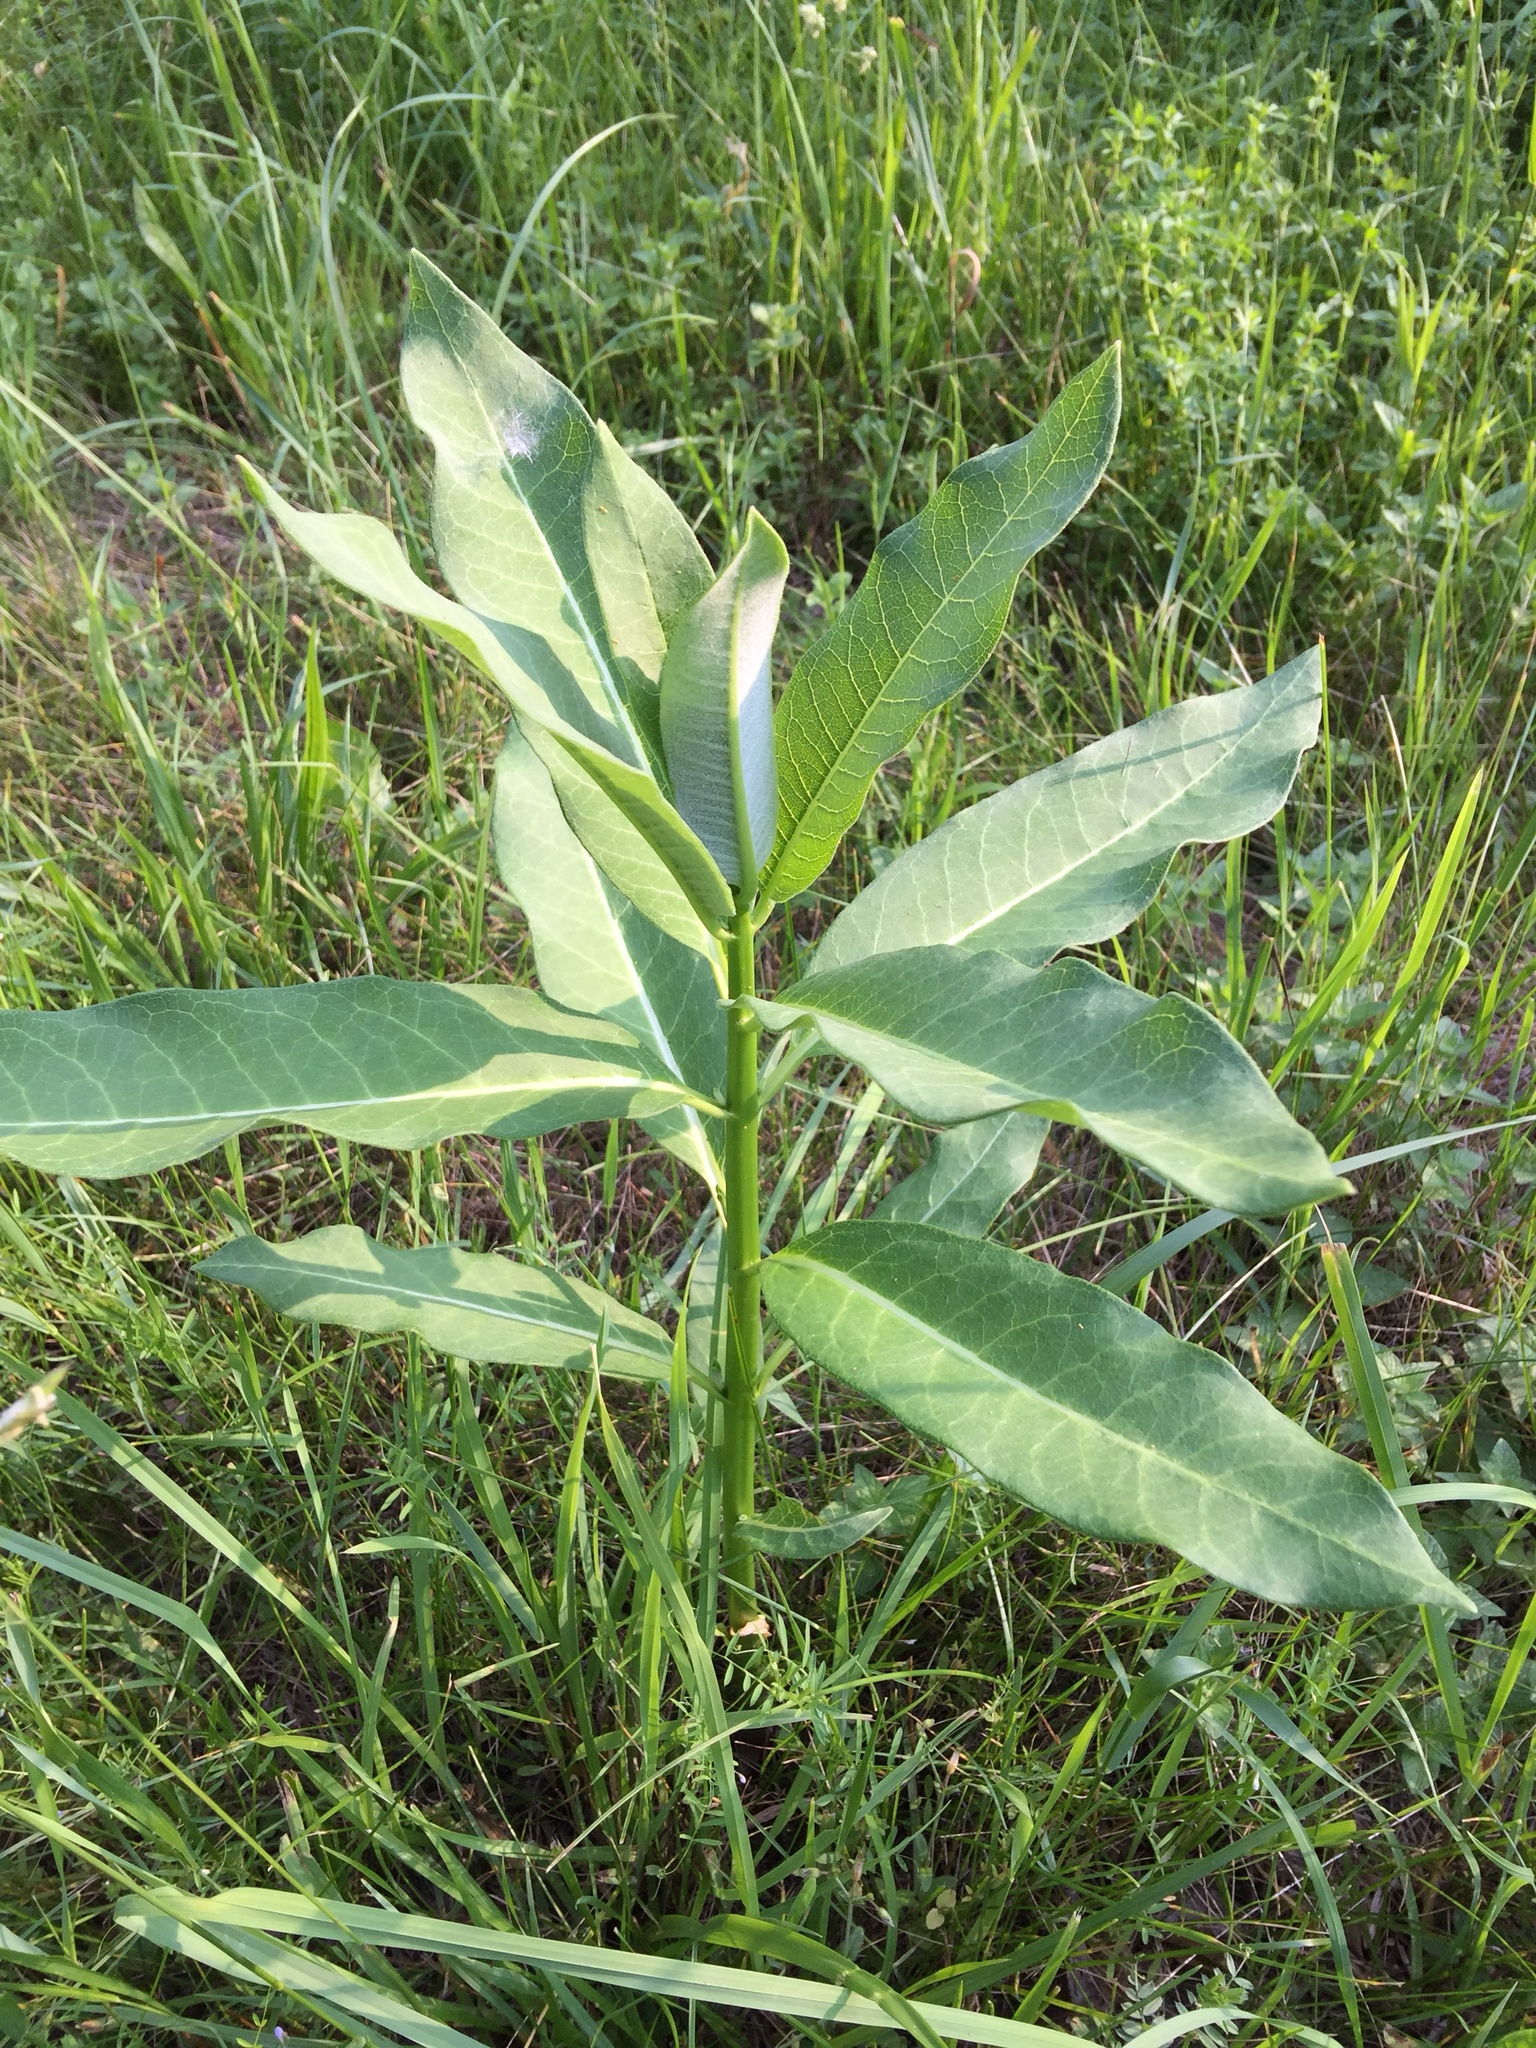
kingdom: Plantae
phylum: Tracheophyta
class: Magnoliopsida
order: Gentianales
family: Apocynaceae
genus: Asclepias
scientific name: Asclepias syriaca
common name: Common milkweed
